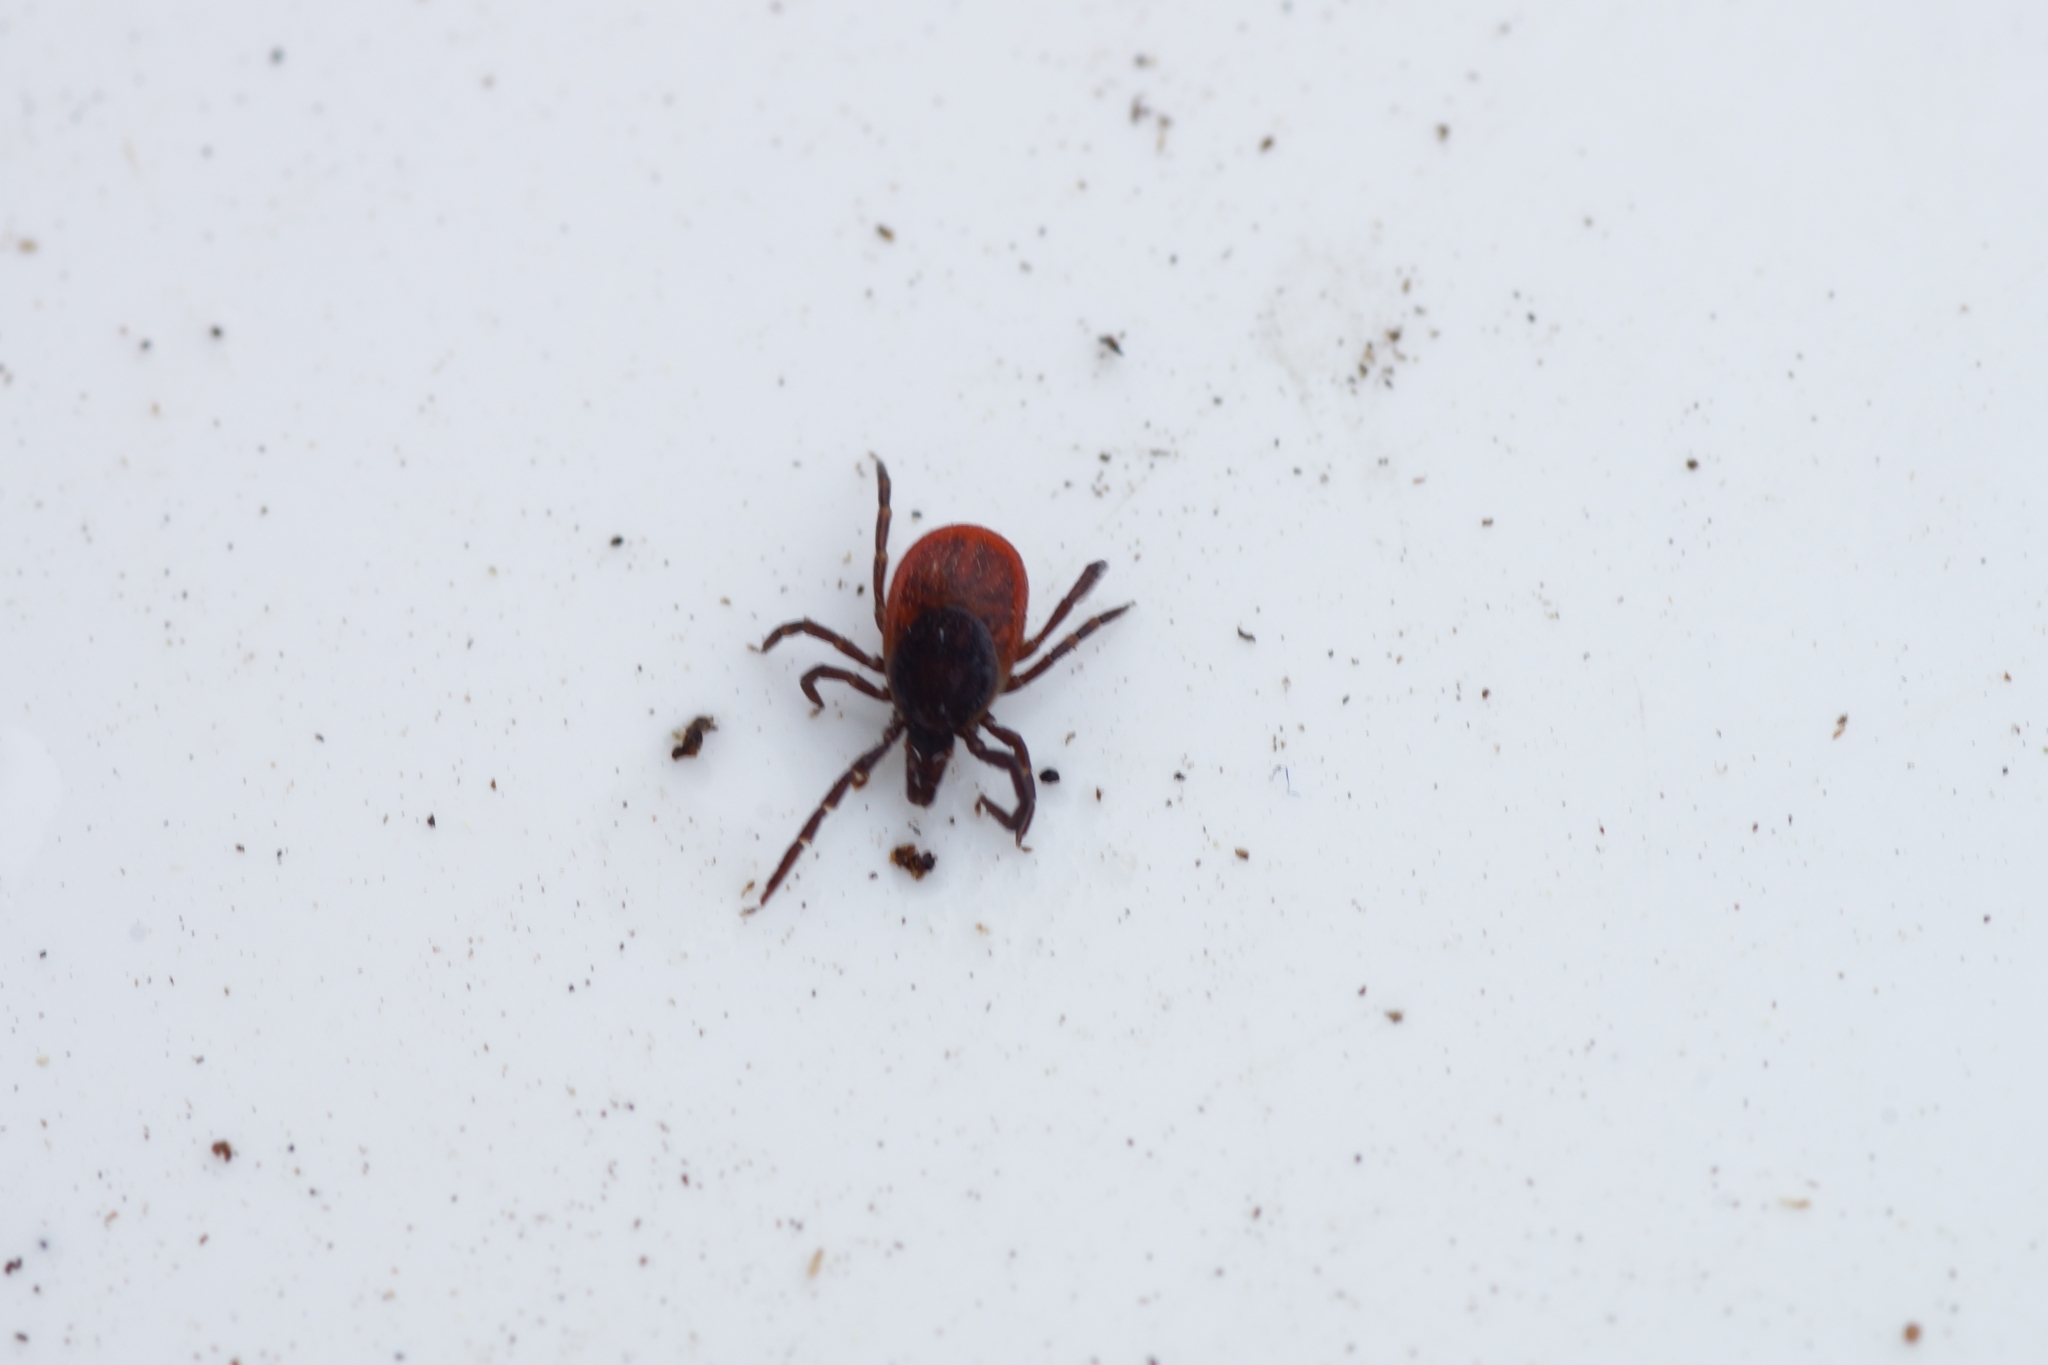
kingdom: Animalia
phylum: Arthropoda
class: Arachnida
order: Ixodida
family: Ixodidae
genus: Ixodes
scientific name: Ixodes ricinus
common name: Castor bean tick
